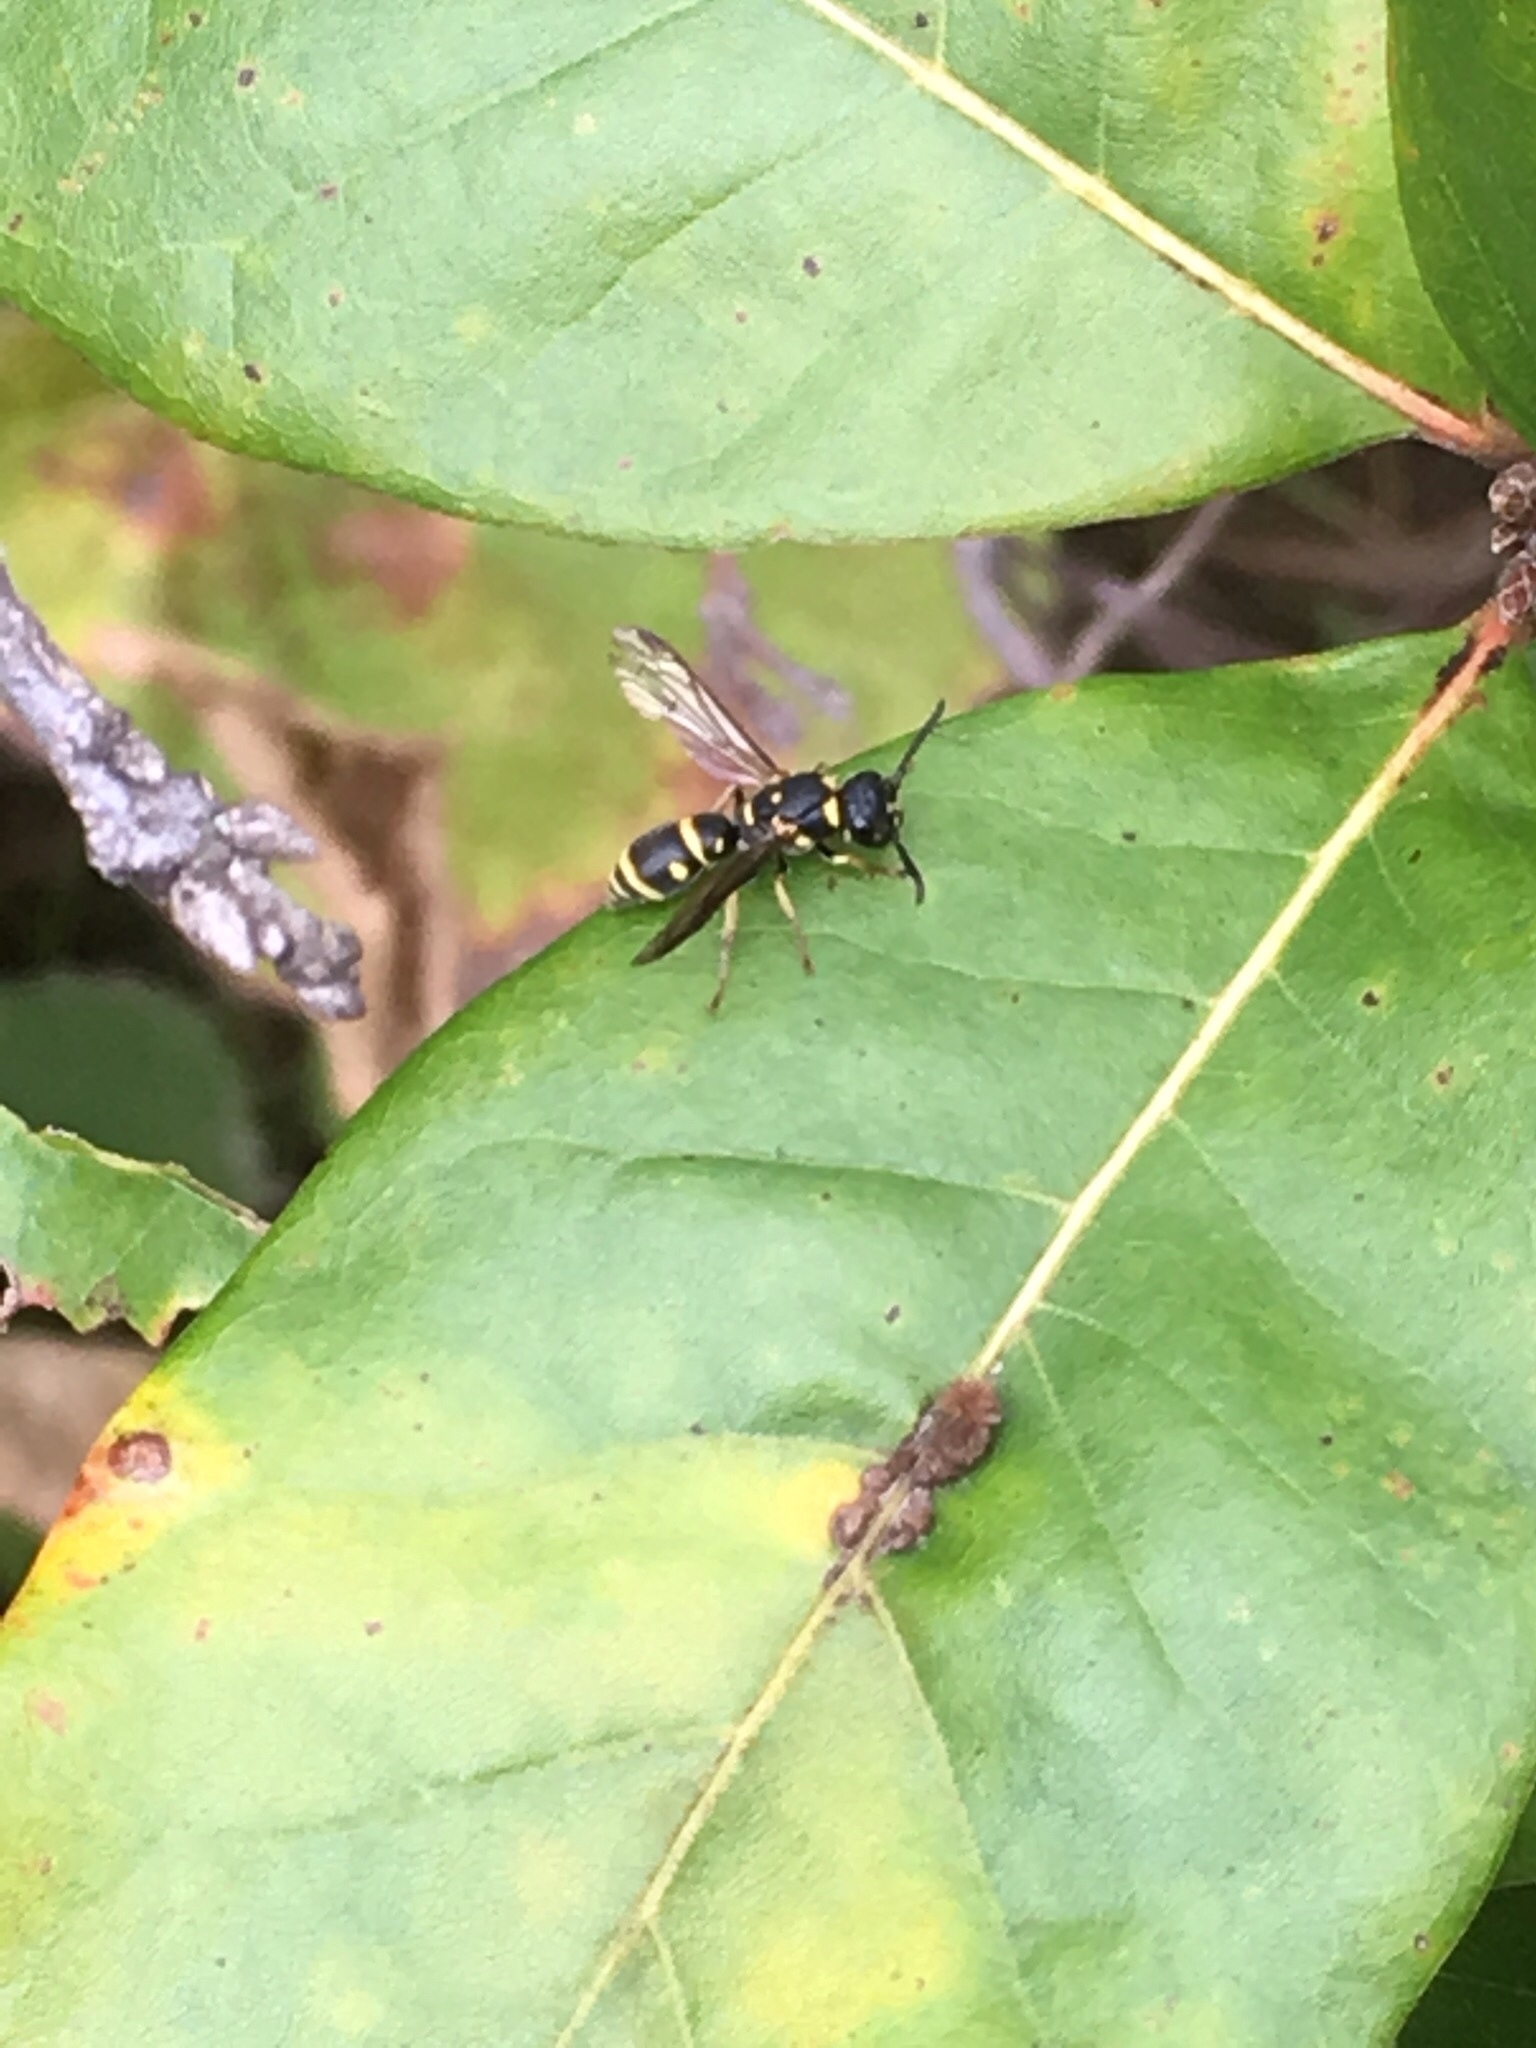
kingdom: Animalia
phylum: Arthropoda
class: Insecta
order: Hymenoptera
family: Eumenidae
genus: Parancistrocerus
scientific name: Parancistrocerus
